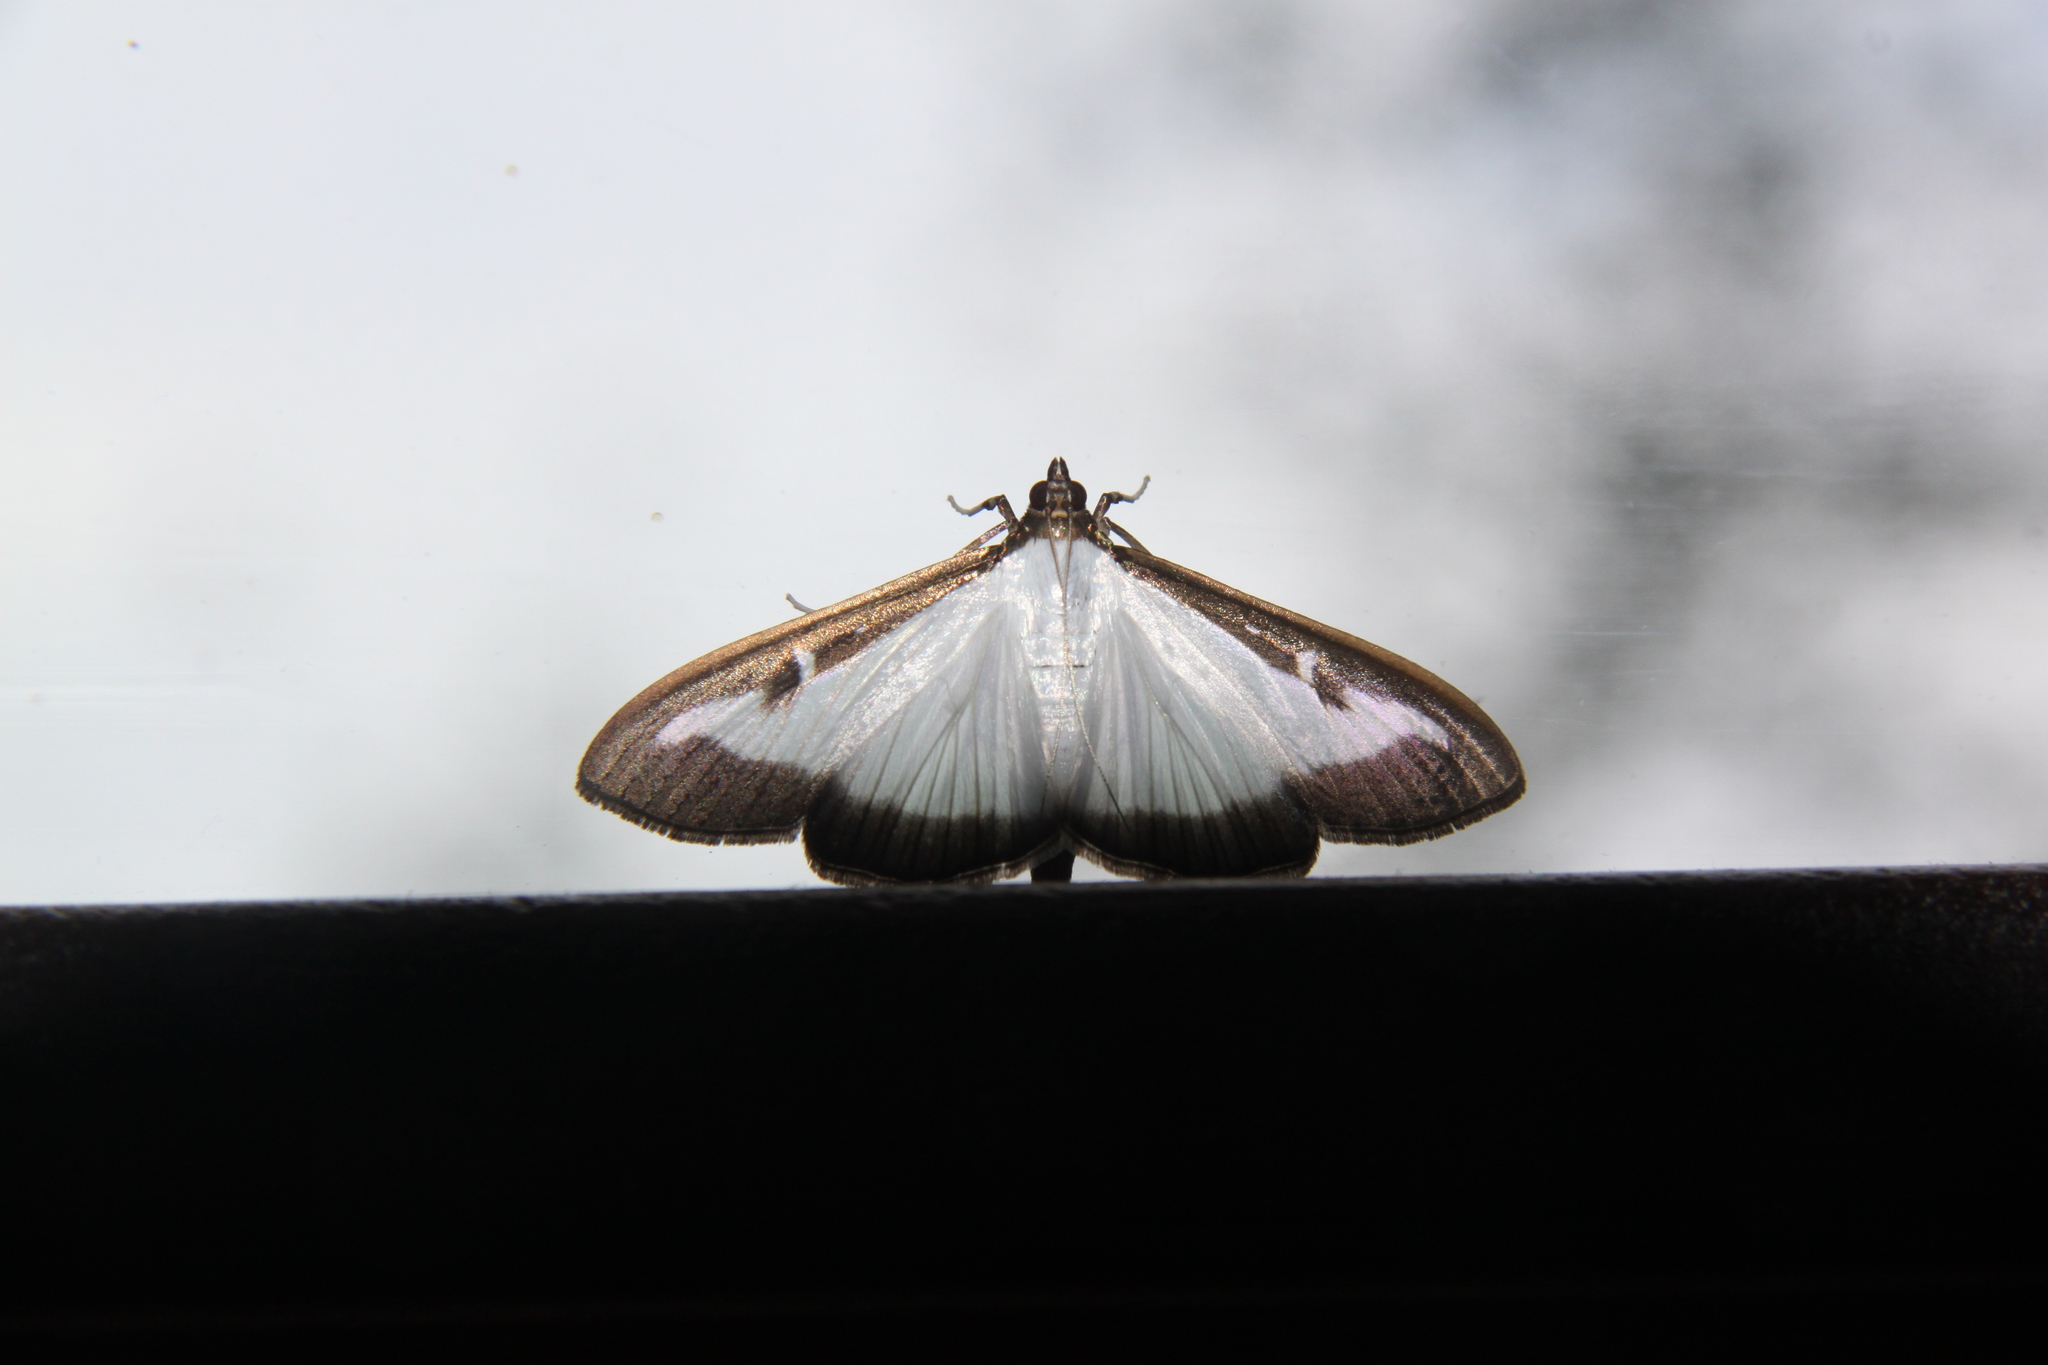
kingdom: Animalia
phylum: Arthropoda
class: Insecta
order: Lepidoptera
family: Crambidae
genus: Cydalima
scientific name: Cydalima perspectalis
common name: Box tree moth
